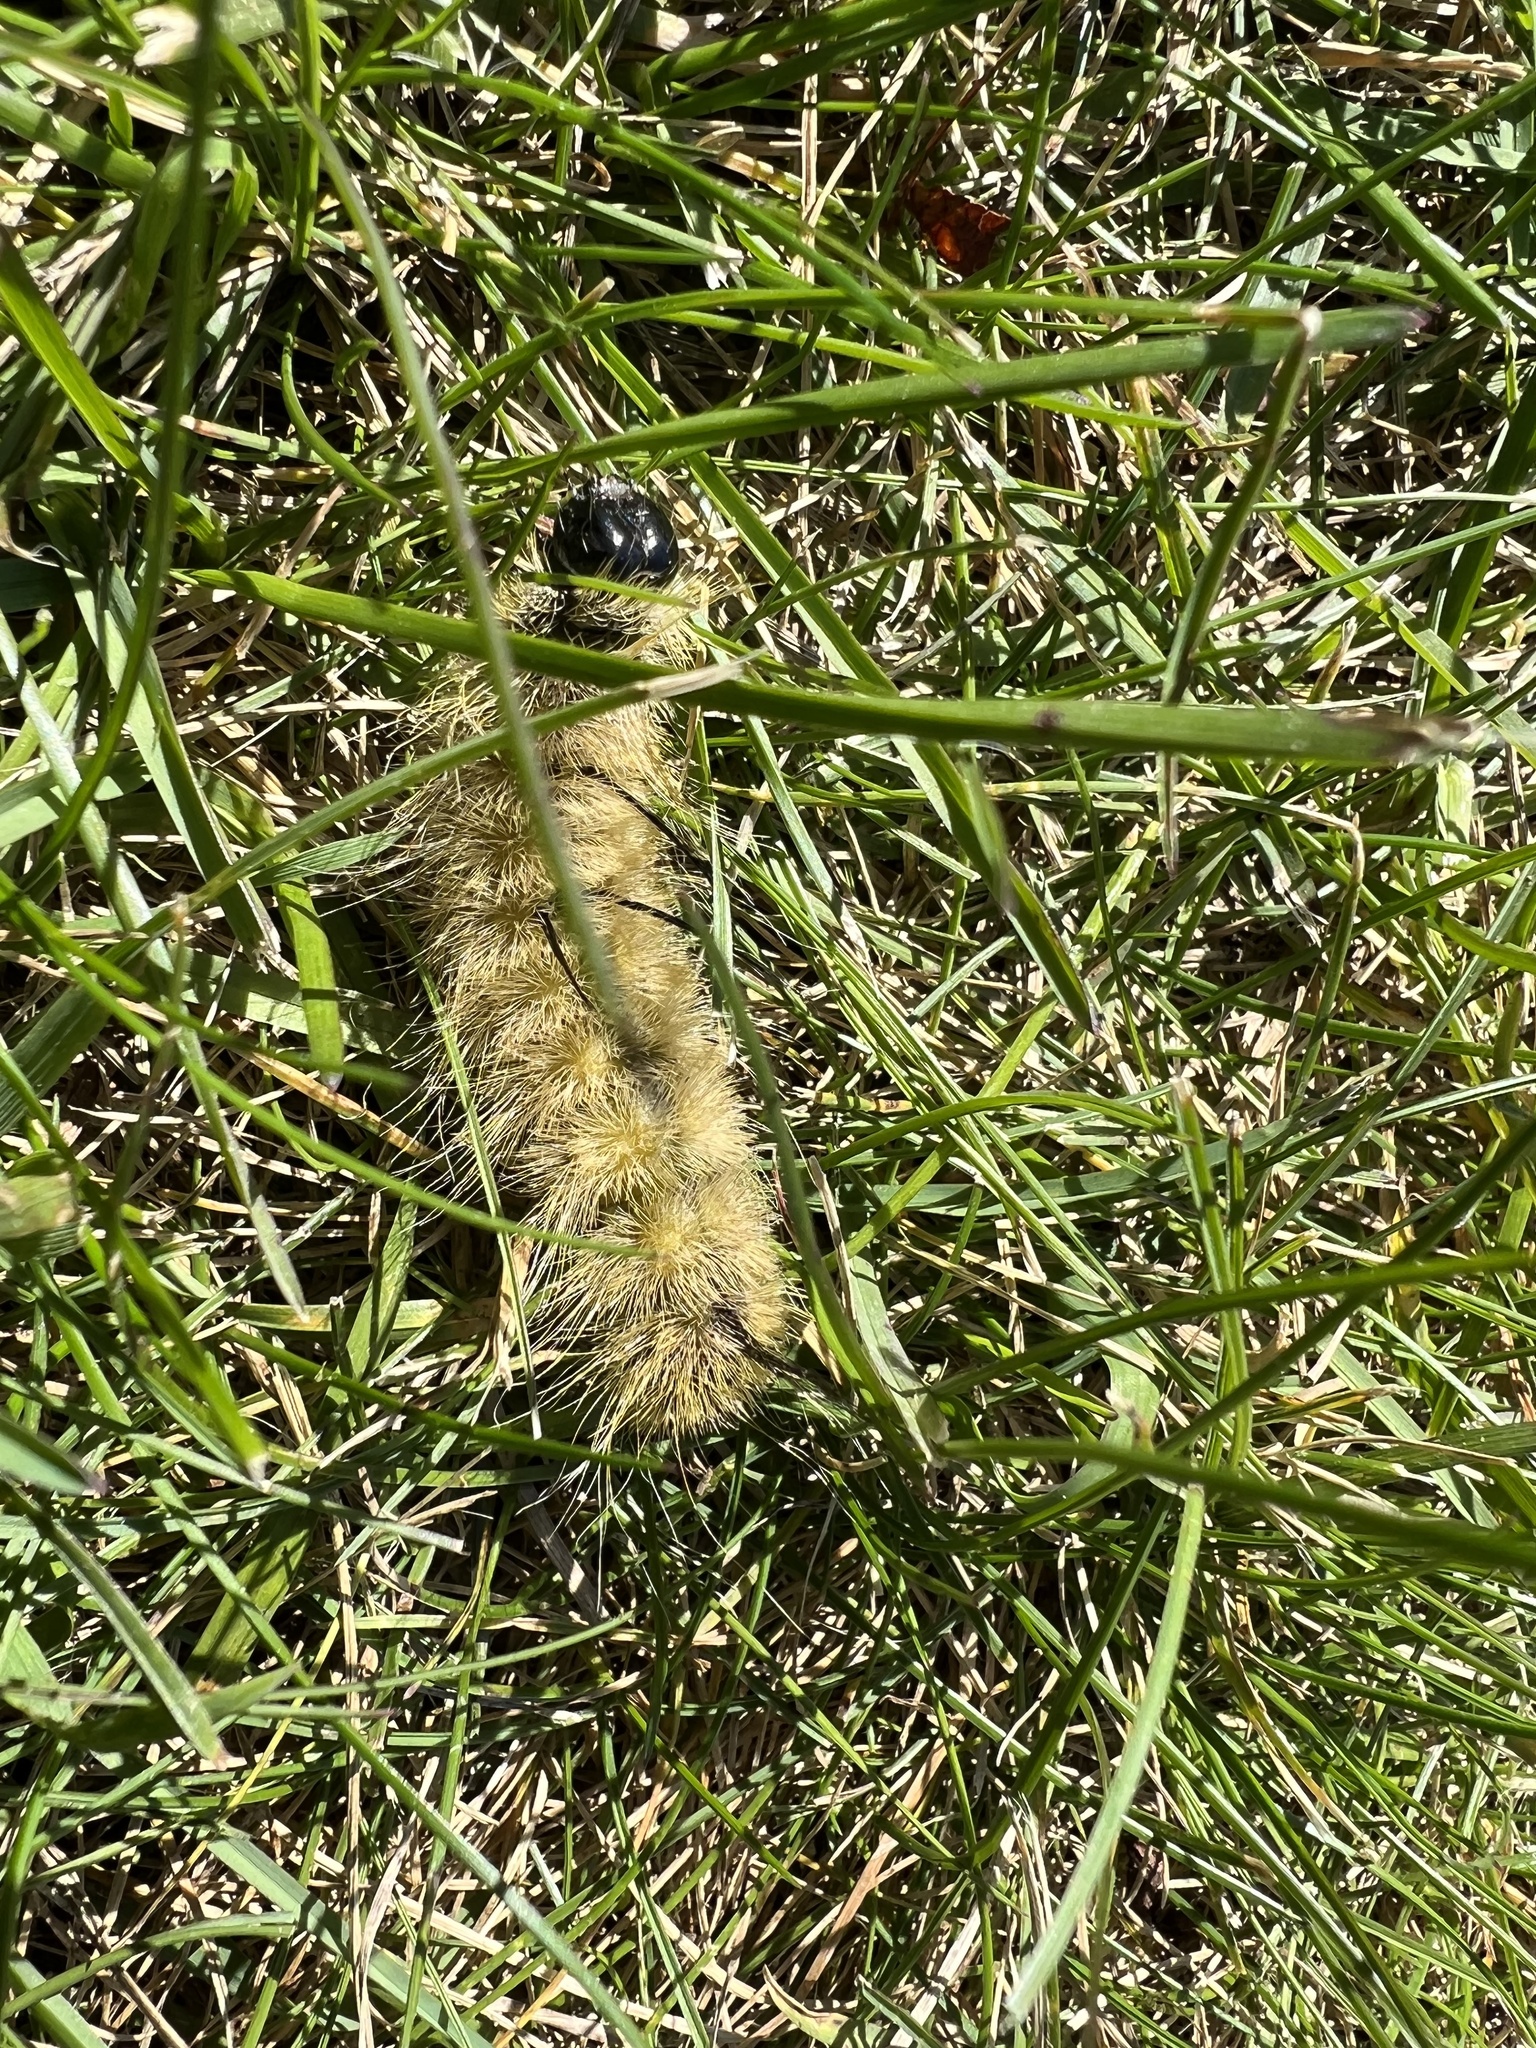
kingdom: Animalia
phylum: Arthropoda
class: Insecta
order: Lepidoptera
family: Noctuidae
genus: Acronicta
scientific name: Acronicta americana
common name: American dagger
